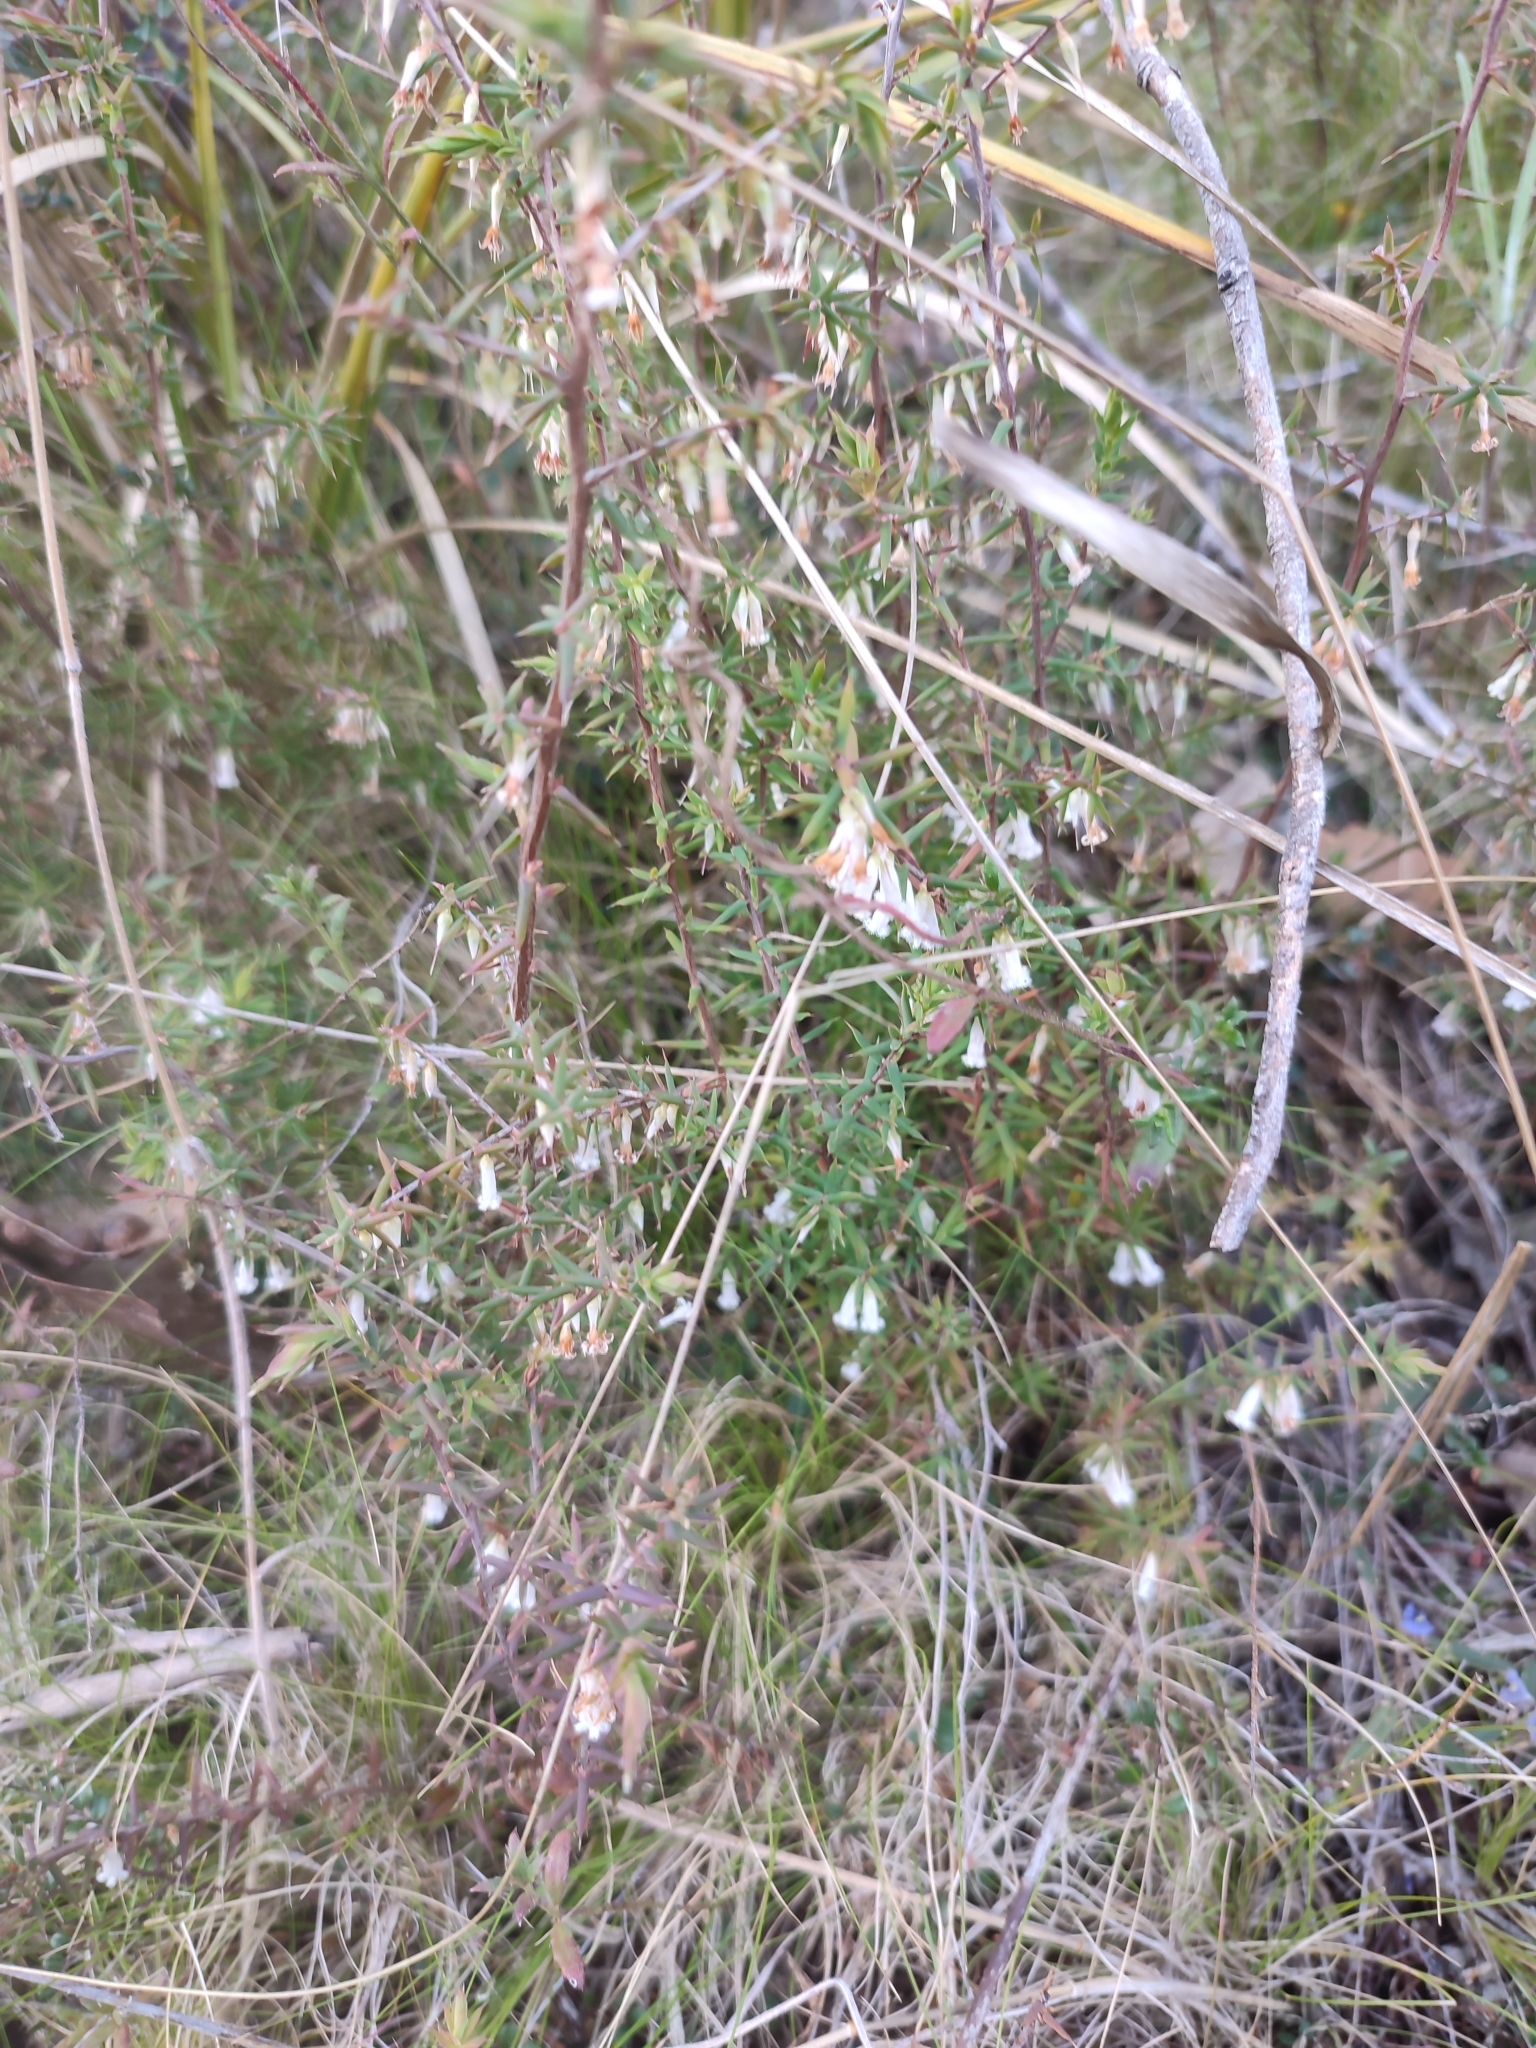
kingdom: Plantae
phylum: Tracheophyta
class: Magnoliopsida
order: Ericales
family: Ericaceae
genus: Styphelia
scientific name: Styphelia fletcheri
